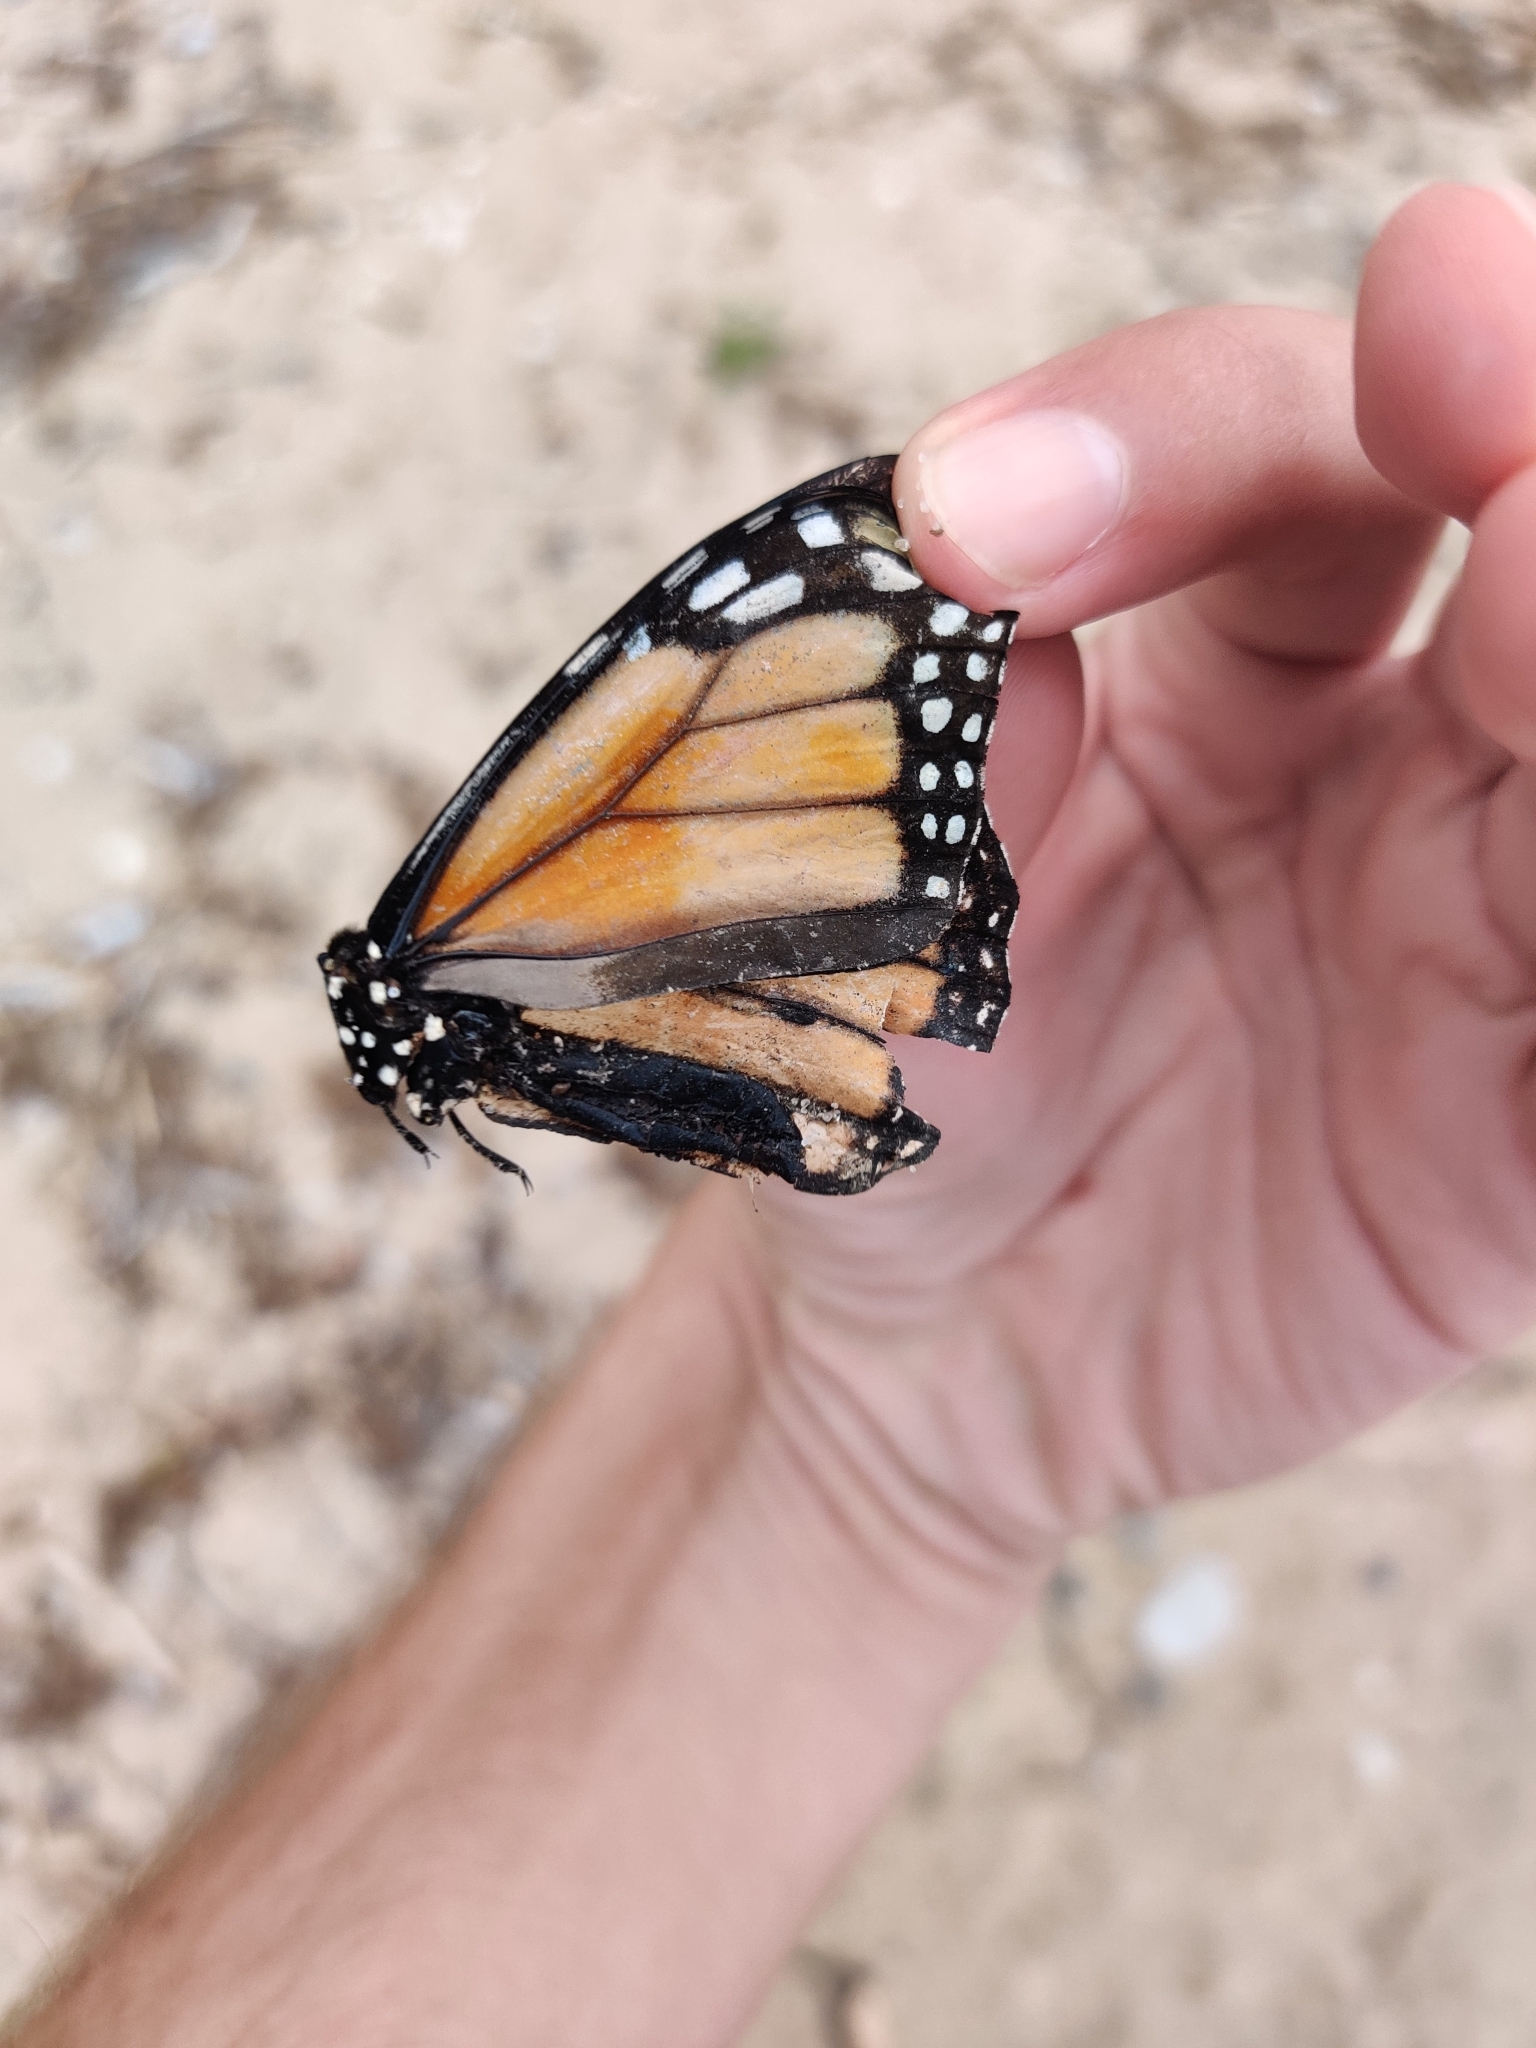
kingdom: Animalia
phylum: Arthropoda
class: Insecta
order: Lepidoptera
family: Nymphalidae
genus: Danaus
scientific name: Danaus plexippus
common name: Monarch
